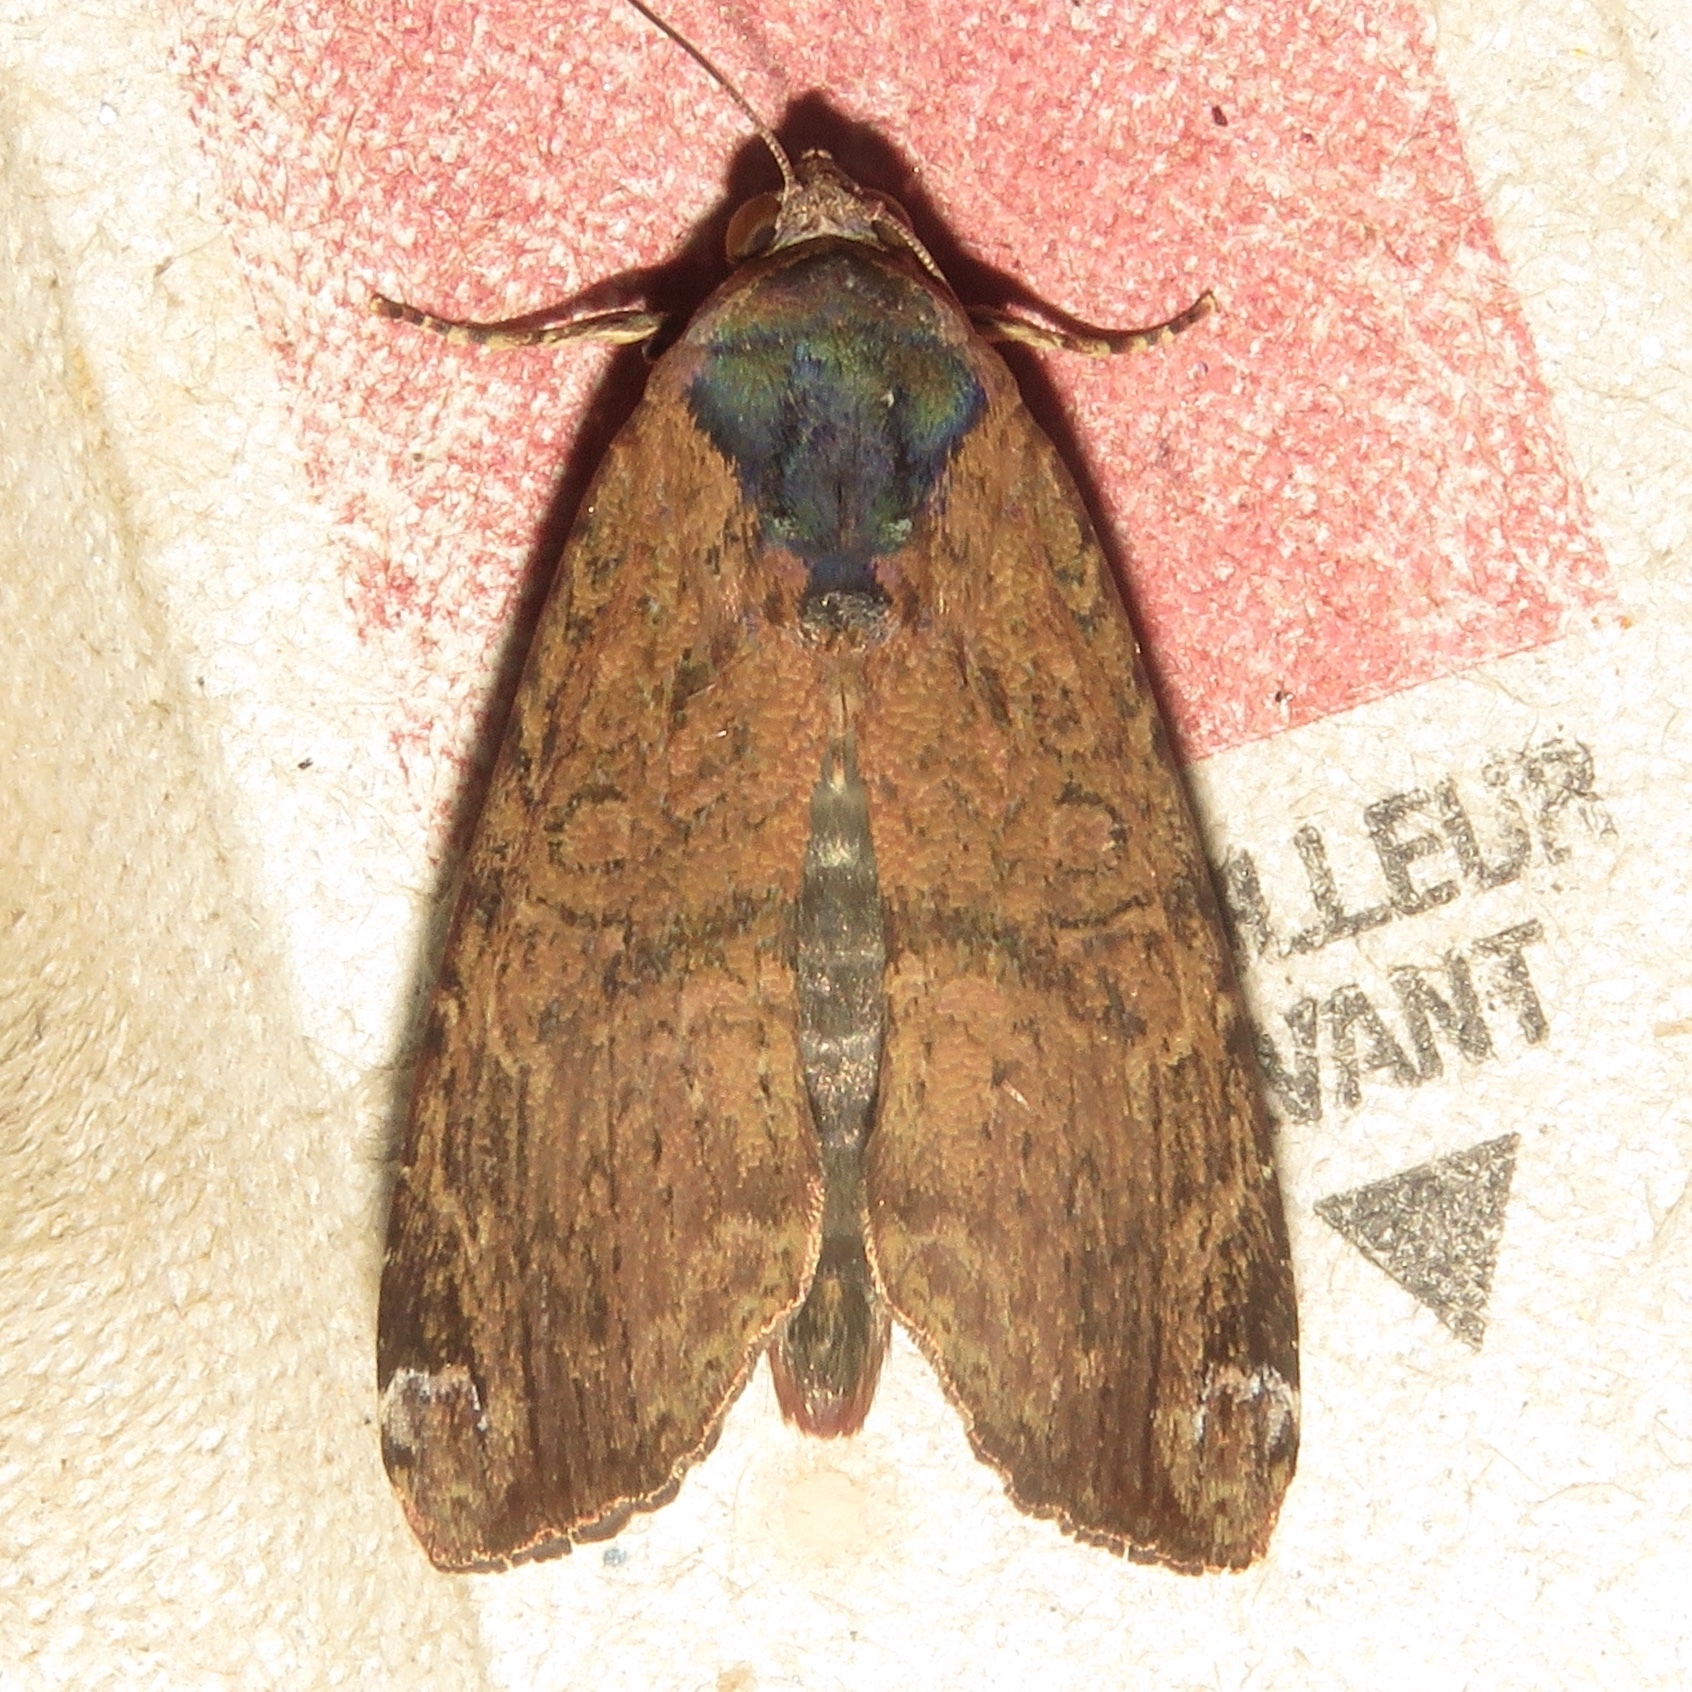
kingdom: Animalia
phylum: Arthropoda
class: Insecta
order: Lepidoptera
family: Noctuidae
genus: Magusa
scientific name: Magusa divaricata
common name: Orb narrow-winged moth
